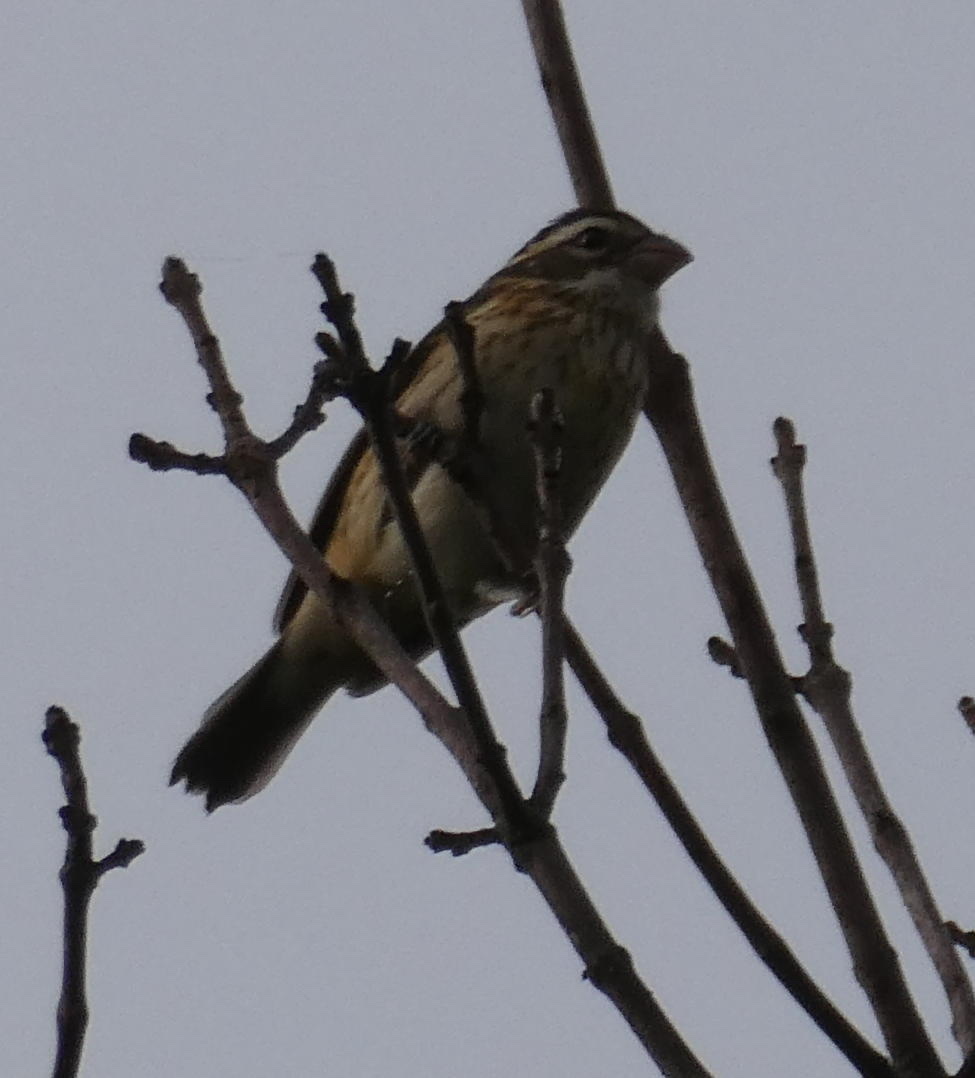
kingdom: Animalia
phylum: Chordata
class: Aves
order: Passeriformes
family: Cardinalidae
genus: Pheucticus
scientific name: Pheucticus ludovicianus
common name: Rose-breasted grosbeak
